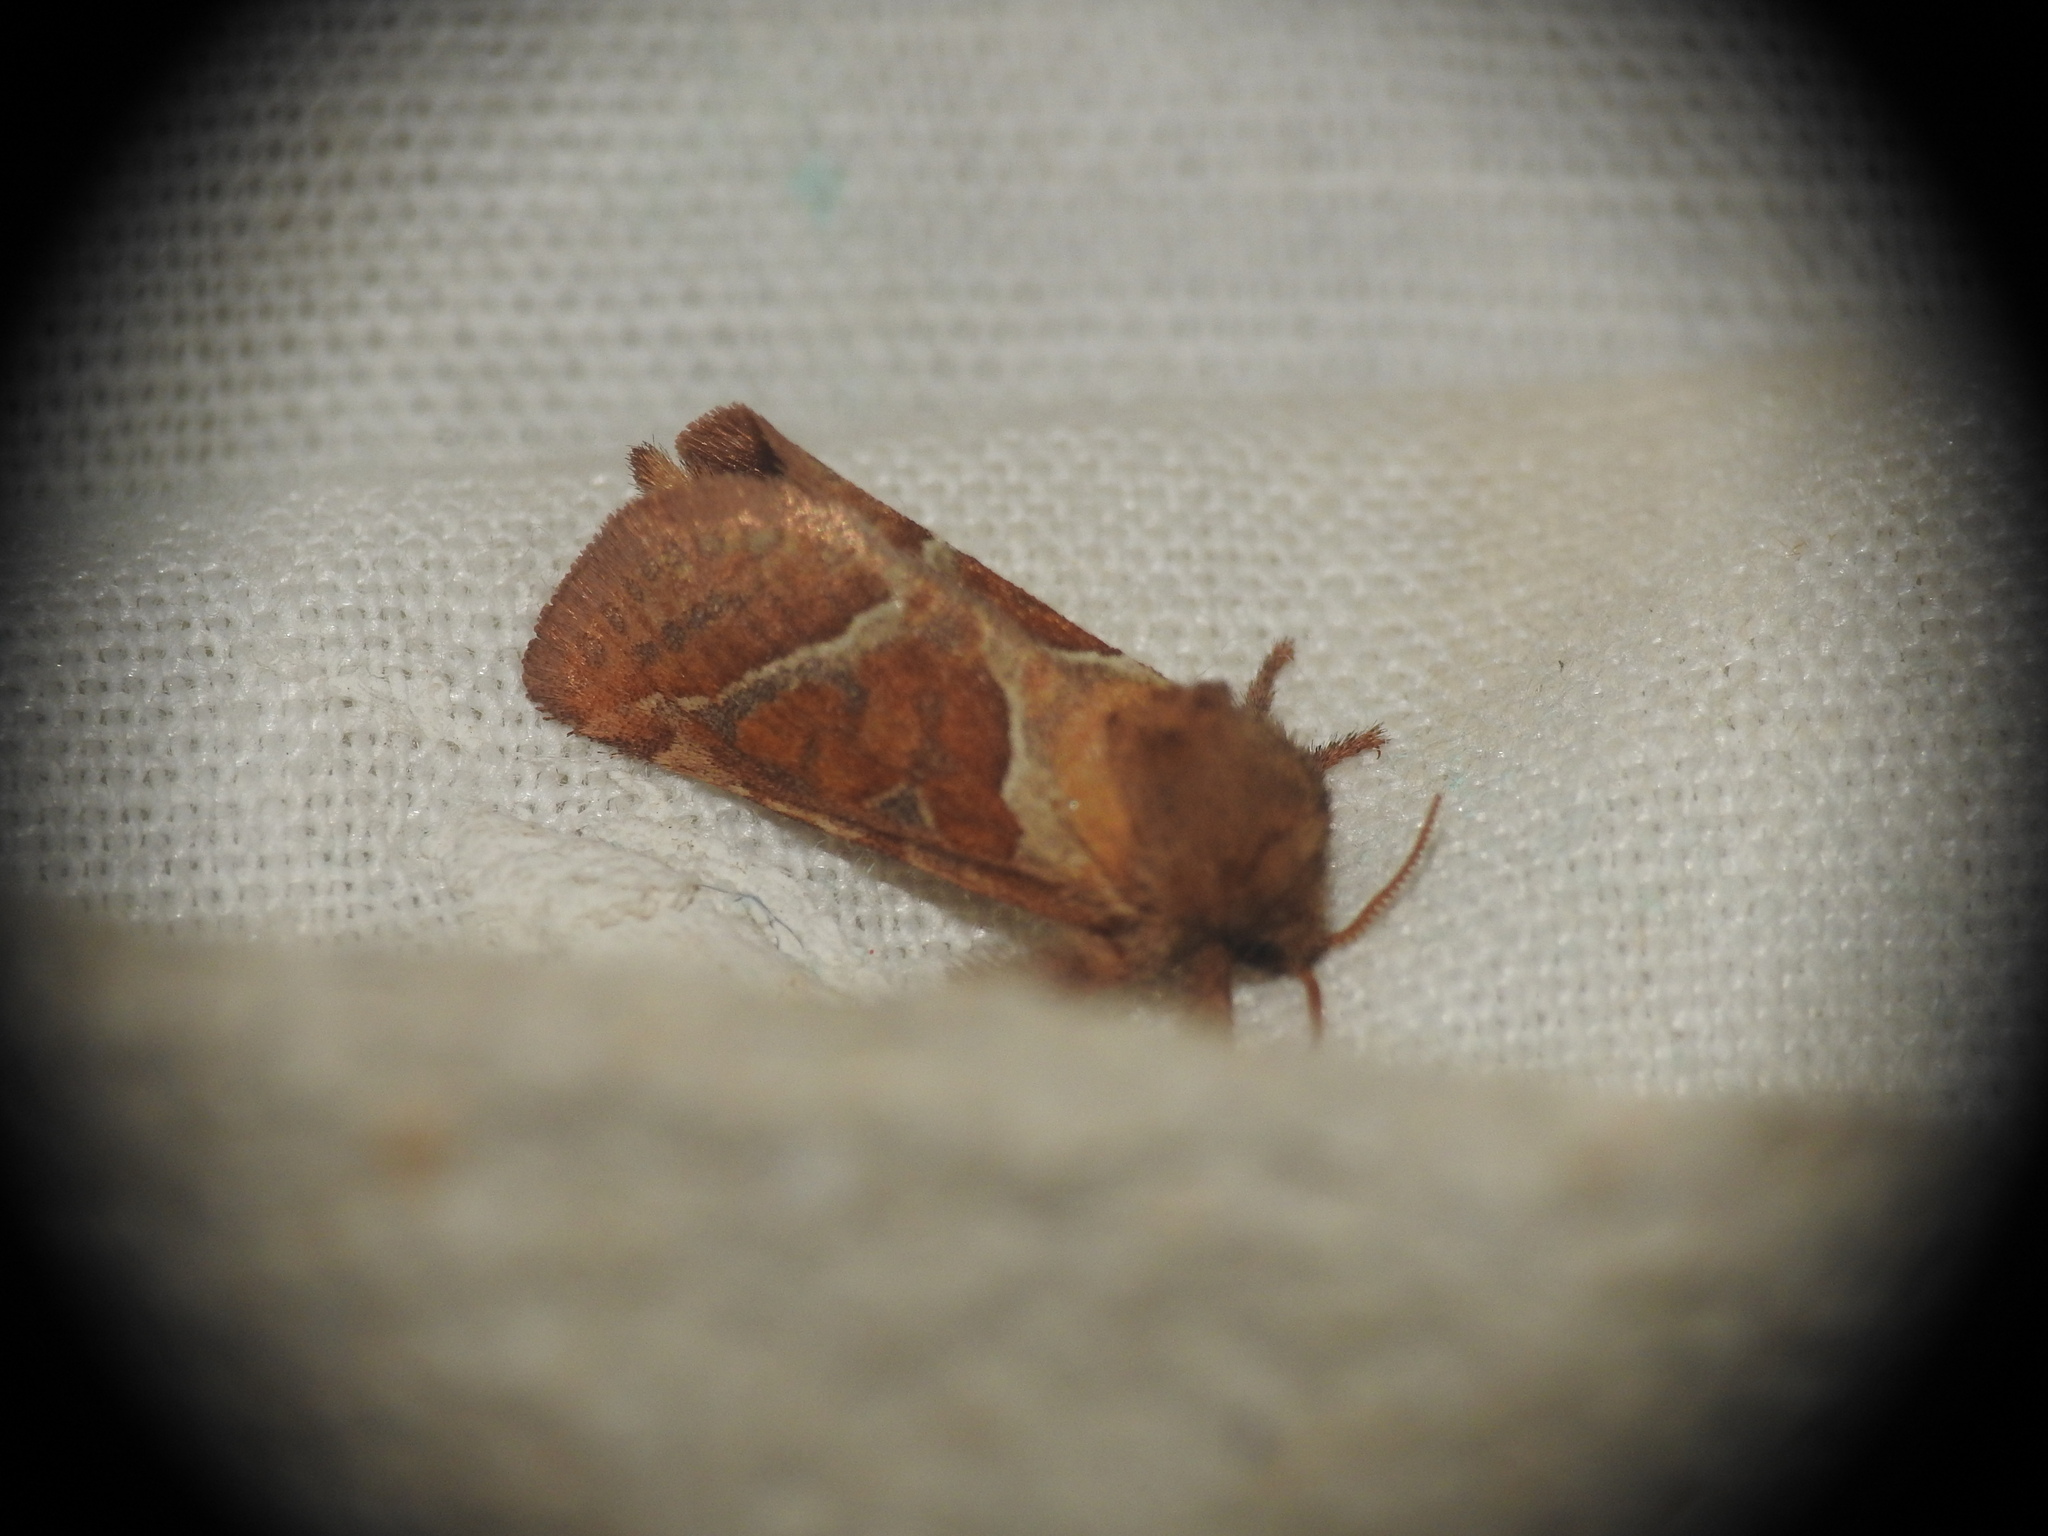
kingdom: Animalia
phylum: Arthropoda
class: Insecta
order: Lepidoptera
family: Hepialidae
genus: Triodia
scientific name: Triodia sylvina
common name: Orange swift
